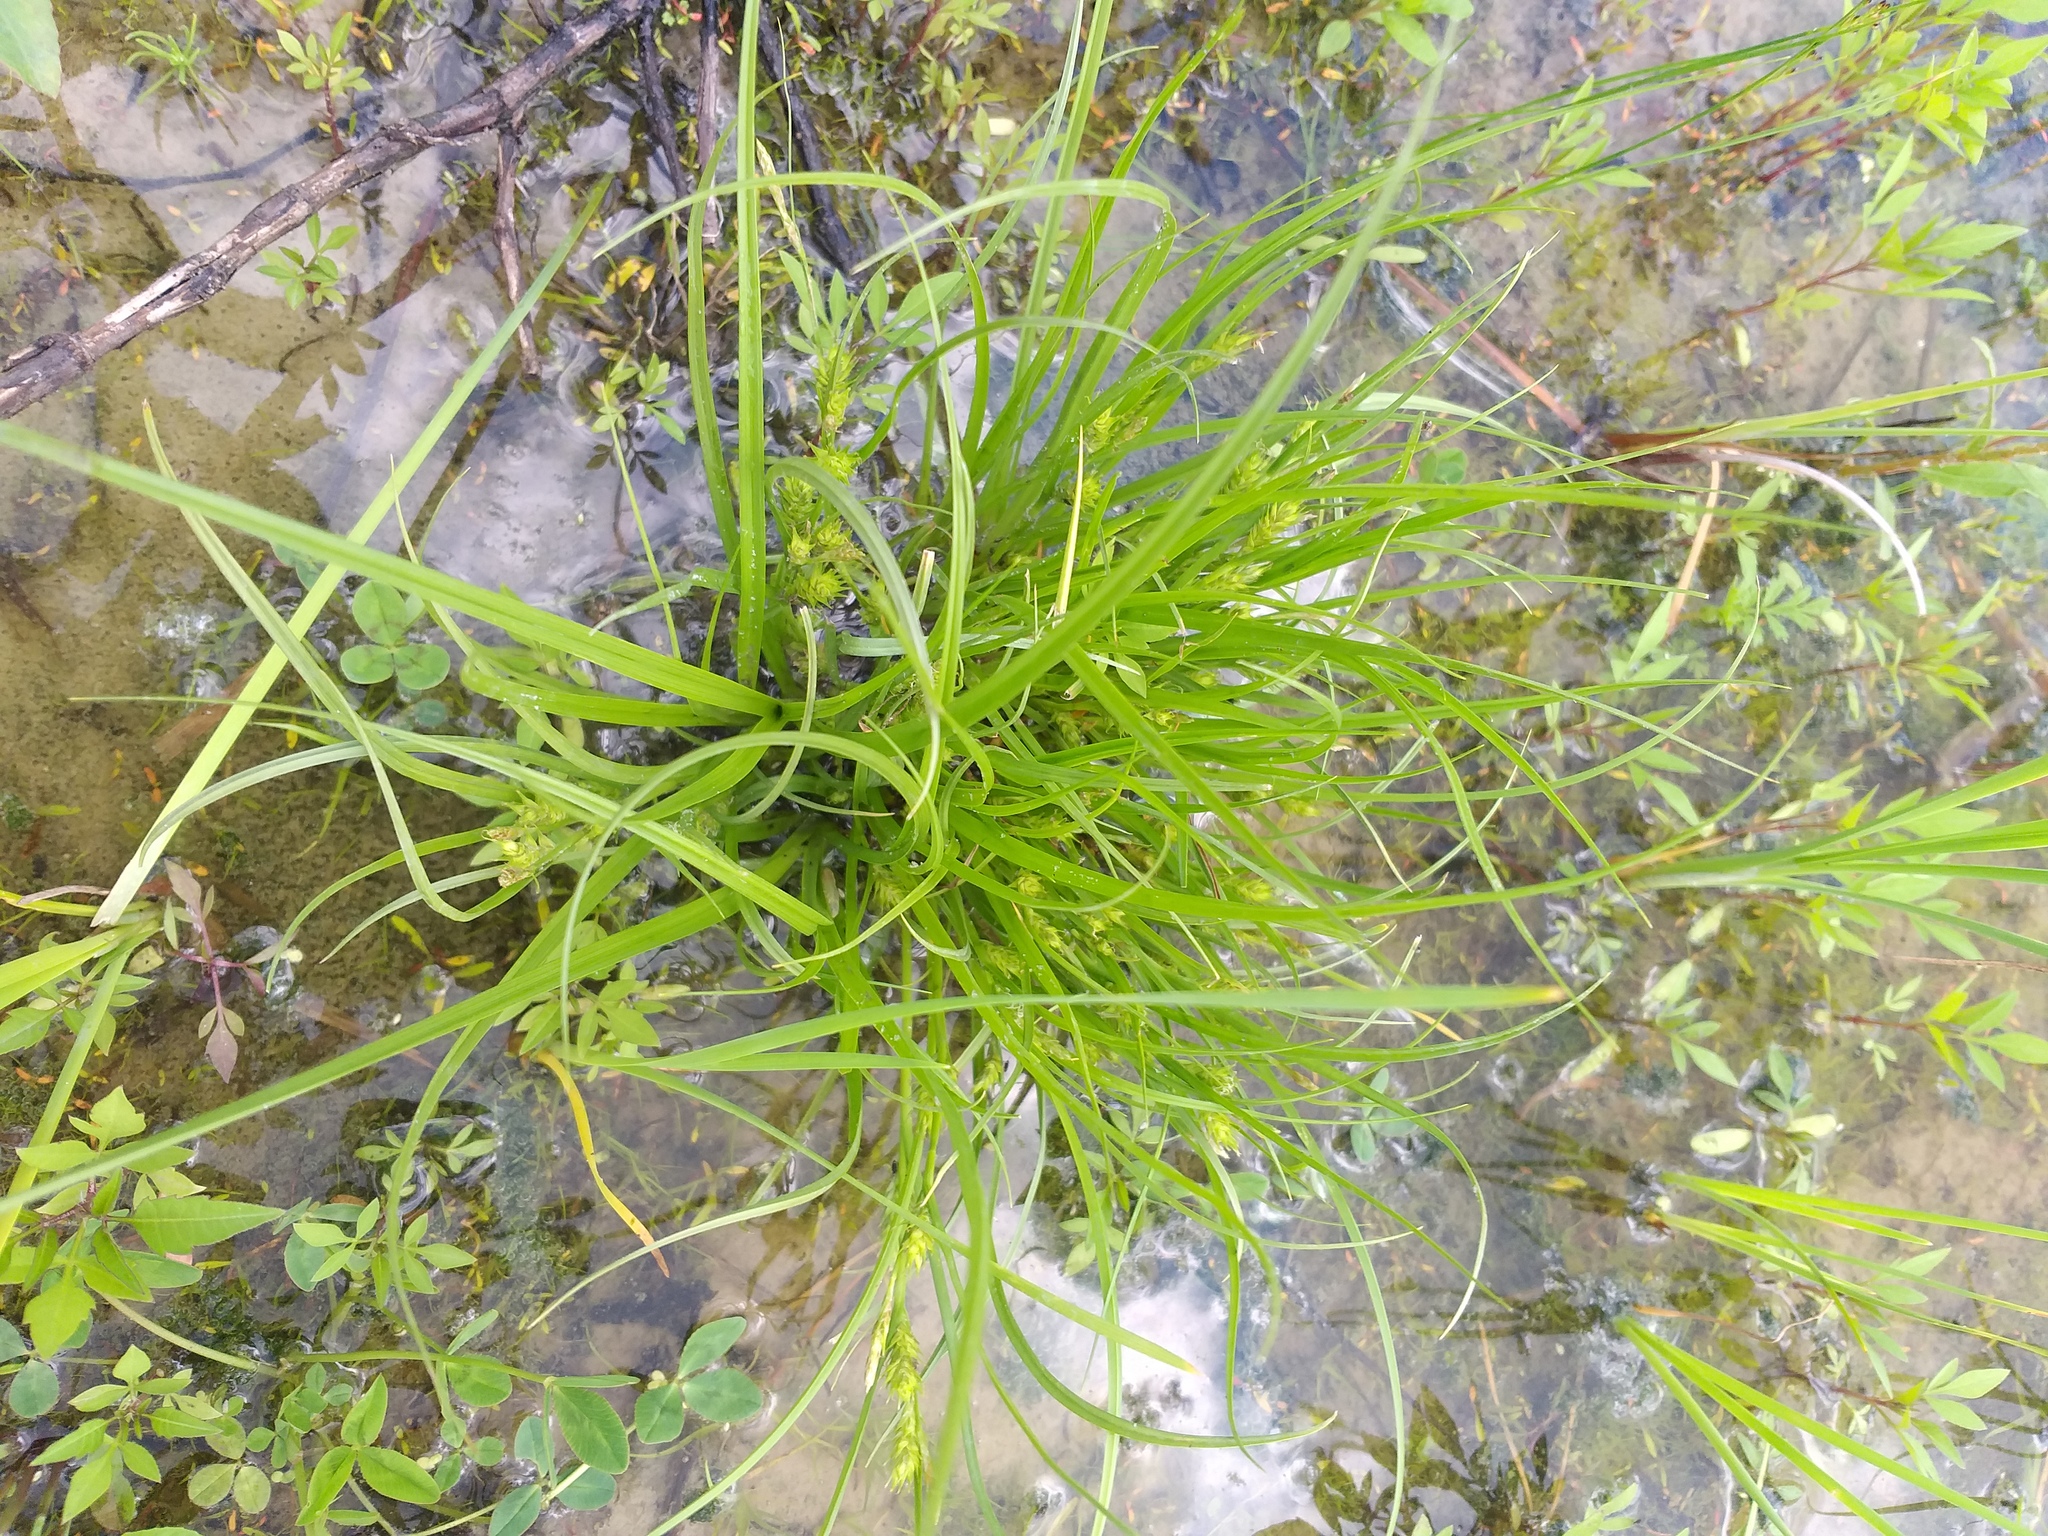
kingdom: Plantae
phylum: Tracheophyta
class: Liliopsida
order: Poales
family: Cyperaceae
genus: Carex
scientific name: Carex secalina
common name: Rye sedge
